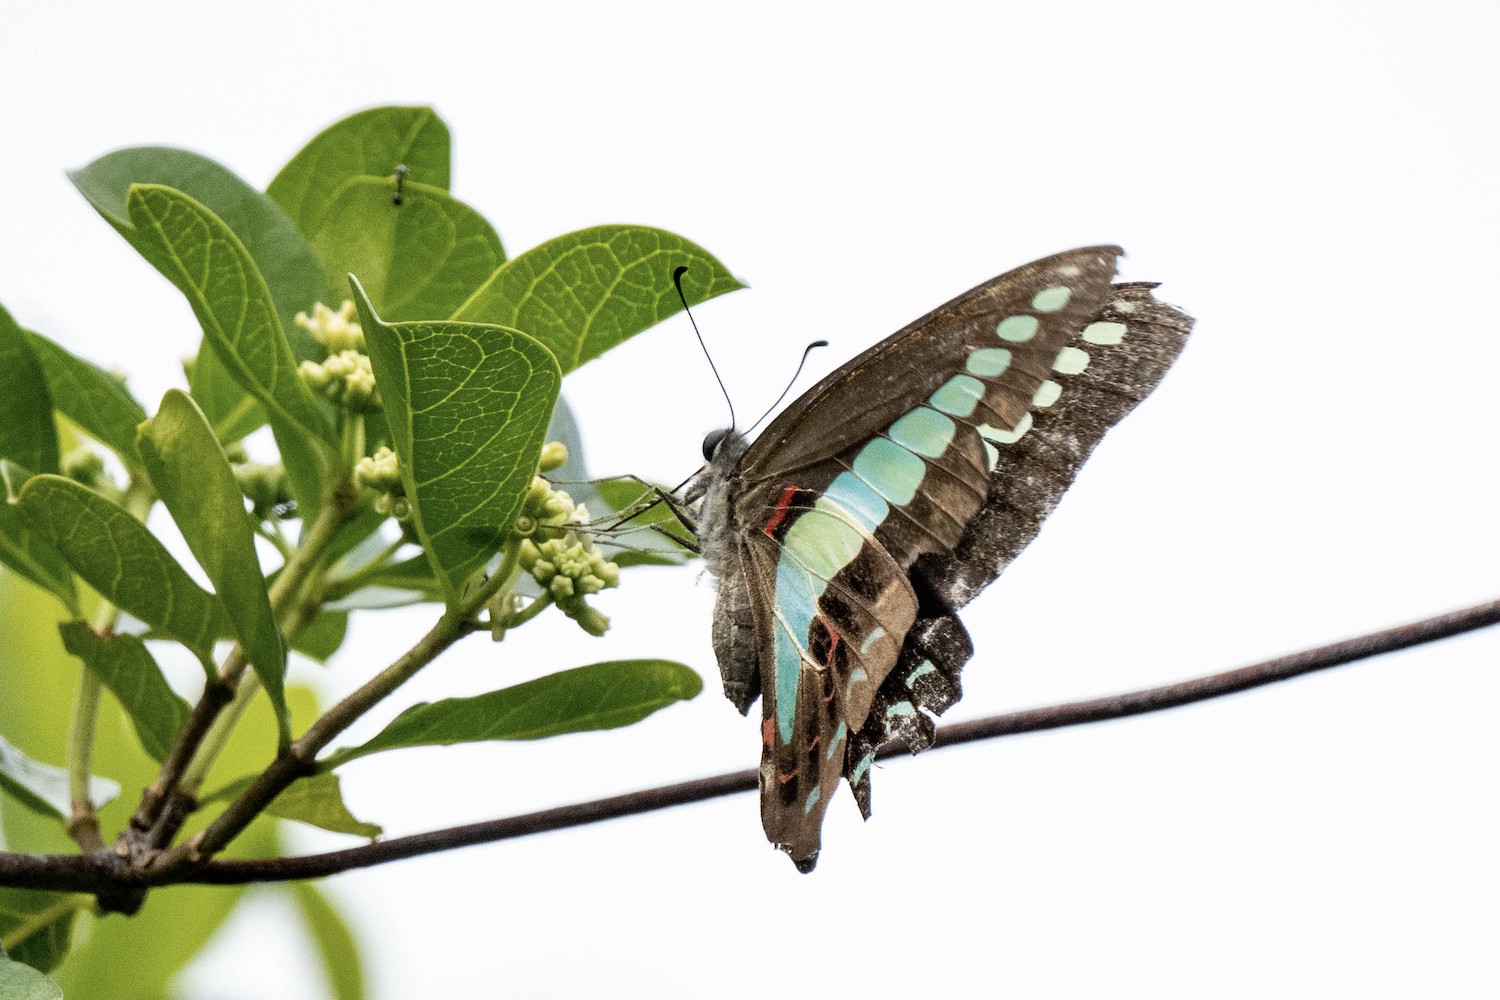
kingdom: Fungi
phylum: Ascomycota
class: Sordariomycetes
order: Microascales
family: Microascaceae
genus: Graphium
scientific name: Graphium sarpedon
